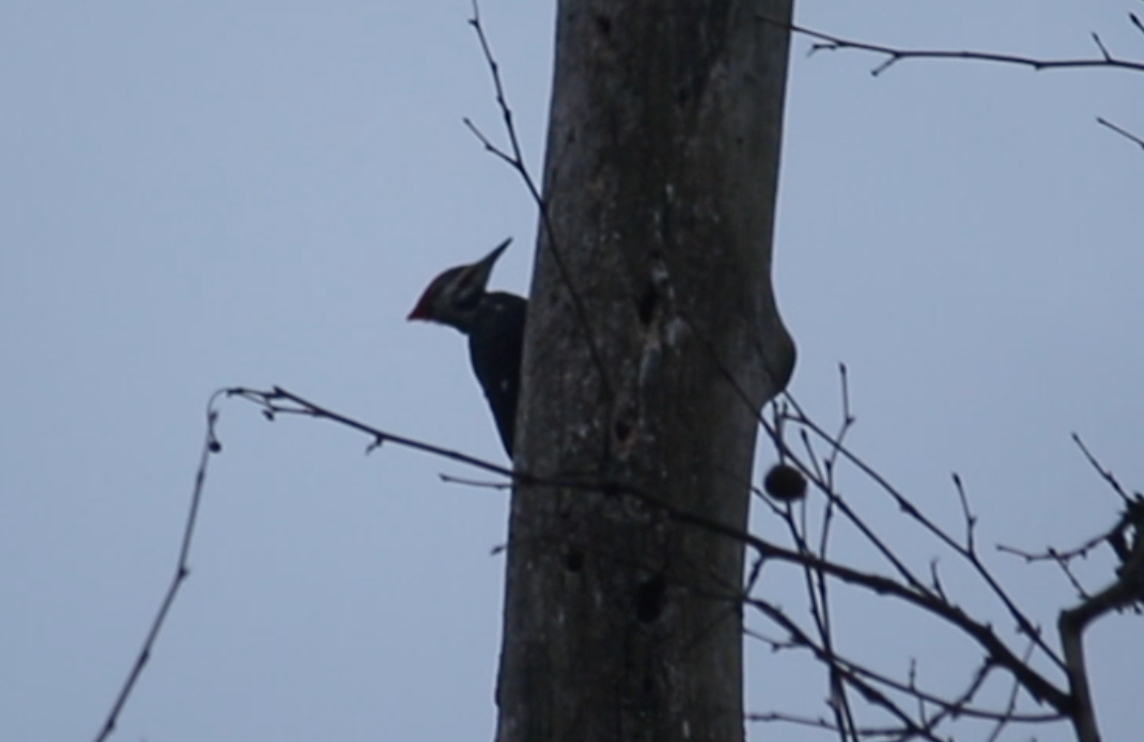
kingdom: Animalia
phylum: Chordata
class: Aves
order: Piciformes
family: Picidae
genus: Dryocopus
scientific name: Dryocopus pileatus
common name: Pileated woodpecker
